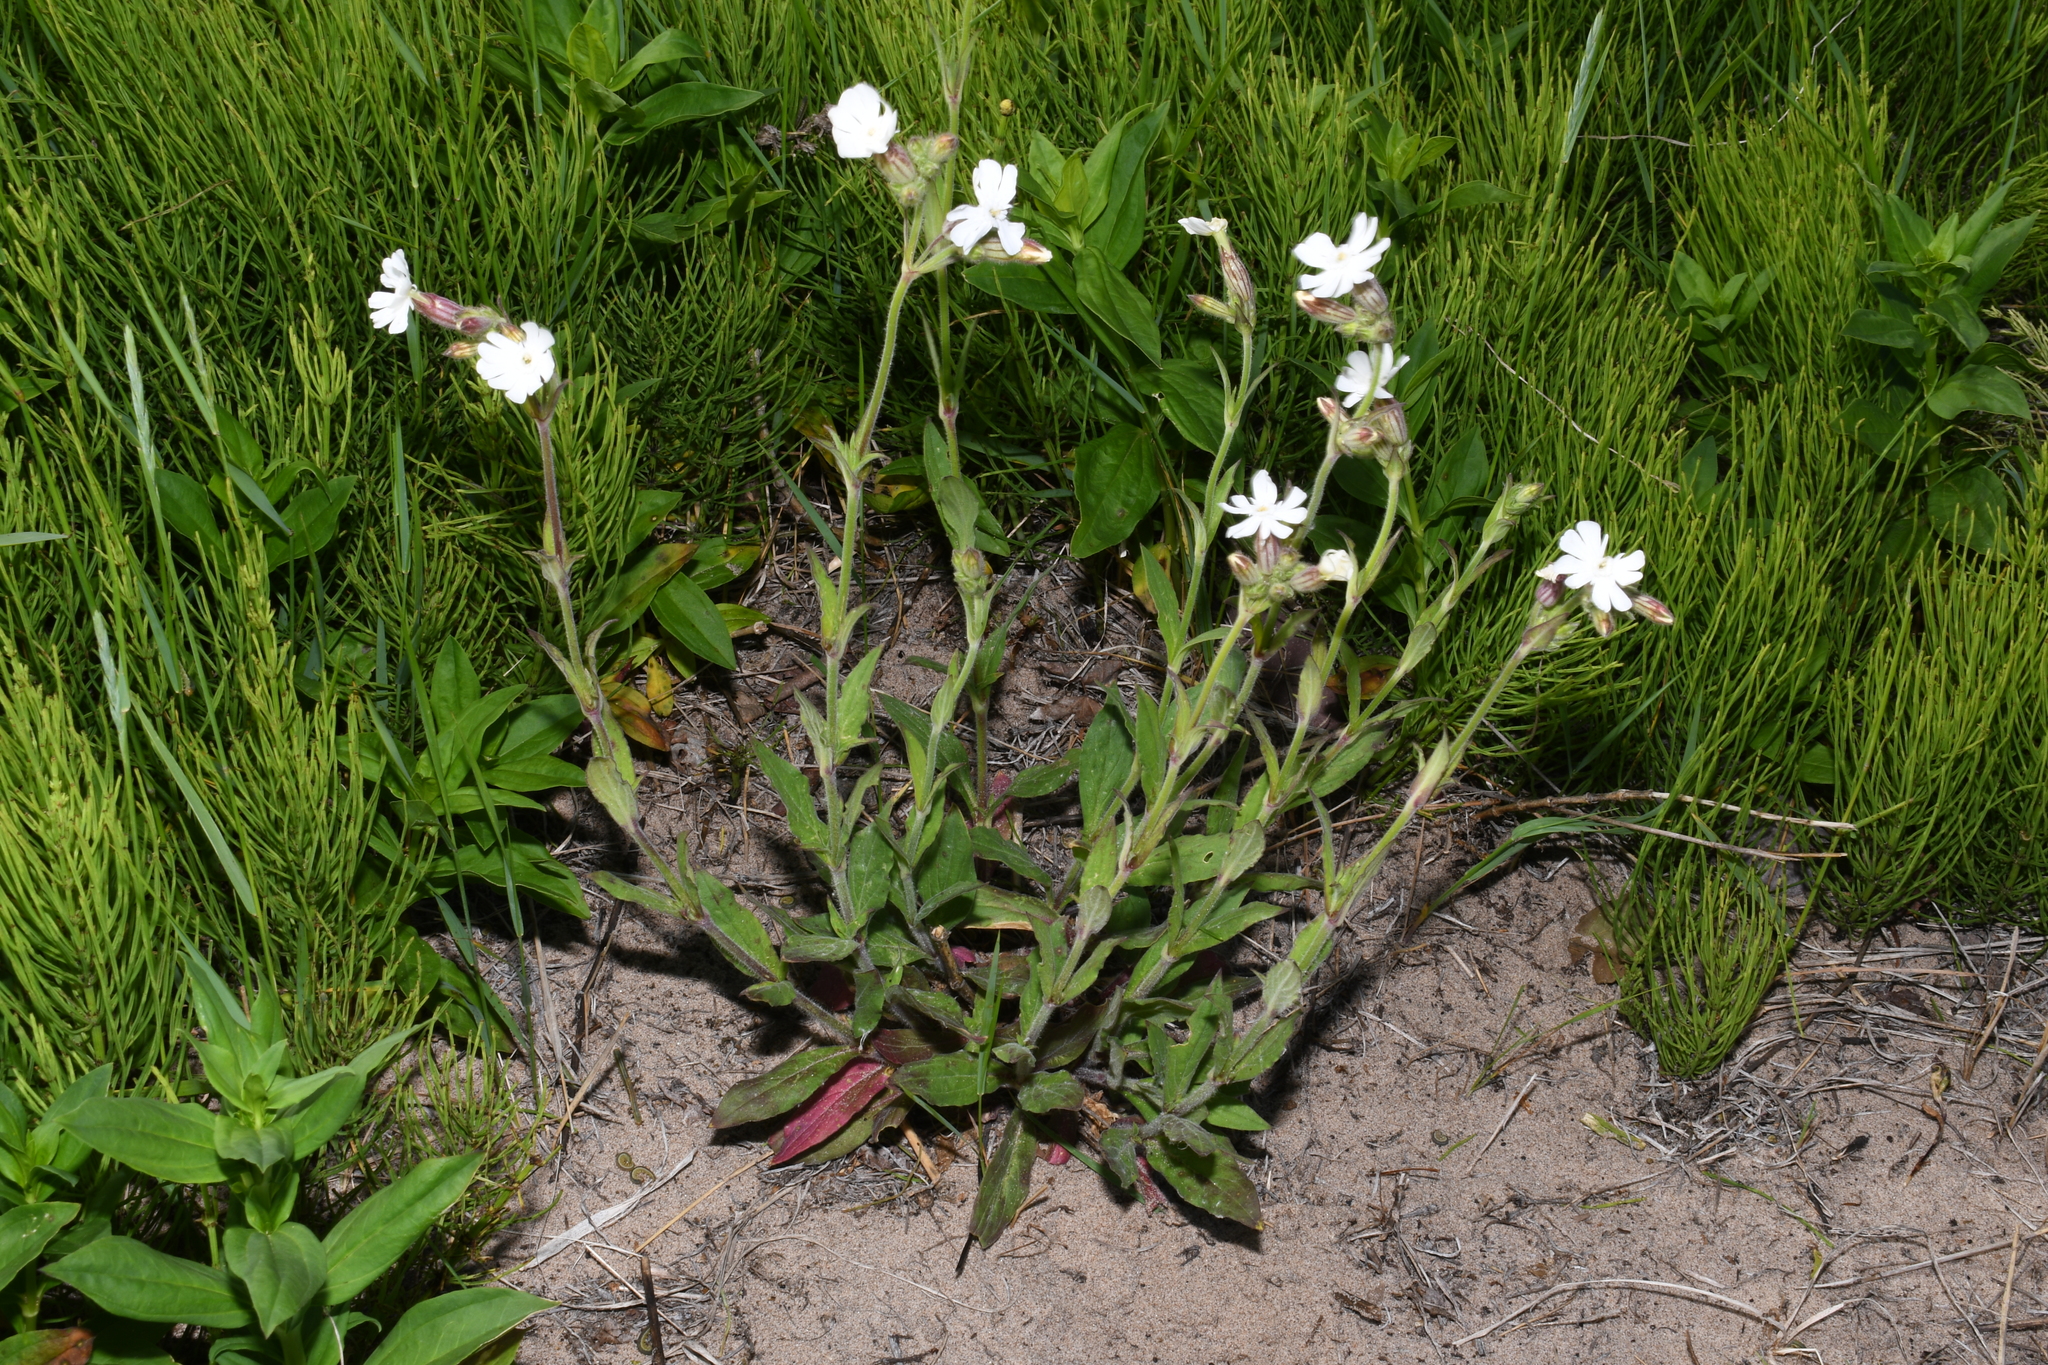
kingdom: Plantae
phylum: Tracheophyta
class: Magnoliopsida
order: Caryophyllales
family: Caryophyllaceae
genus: Silene
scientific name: Silene latifolia
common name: White campion
